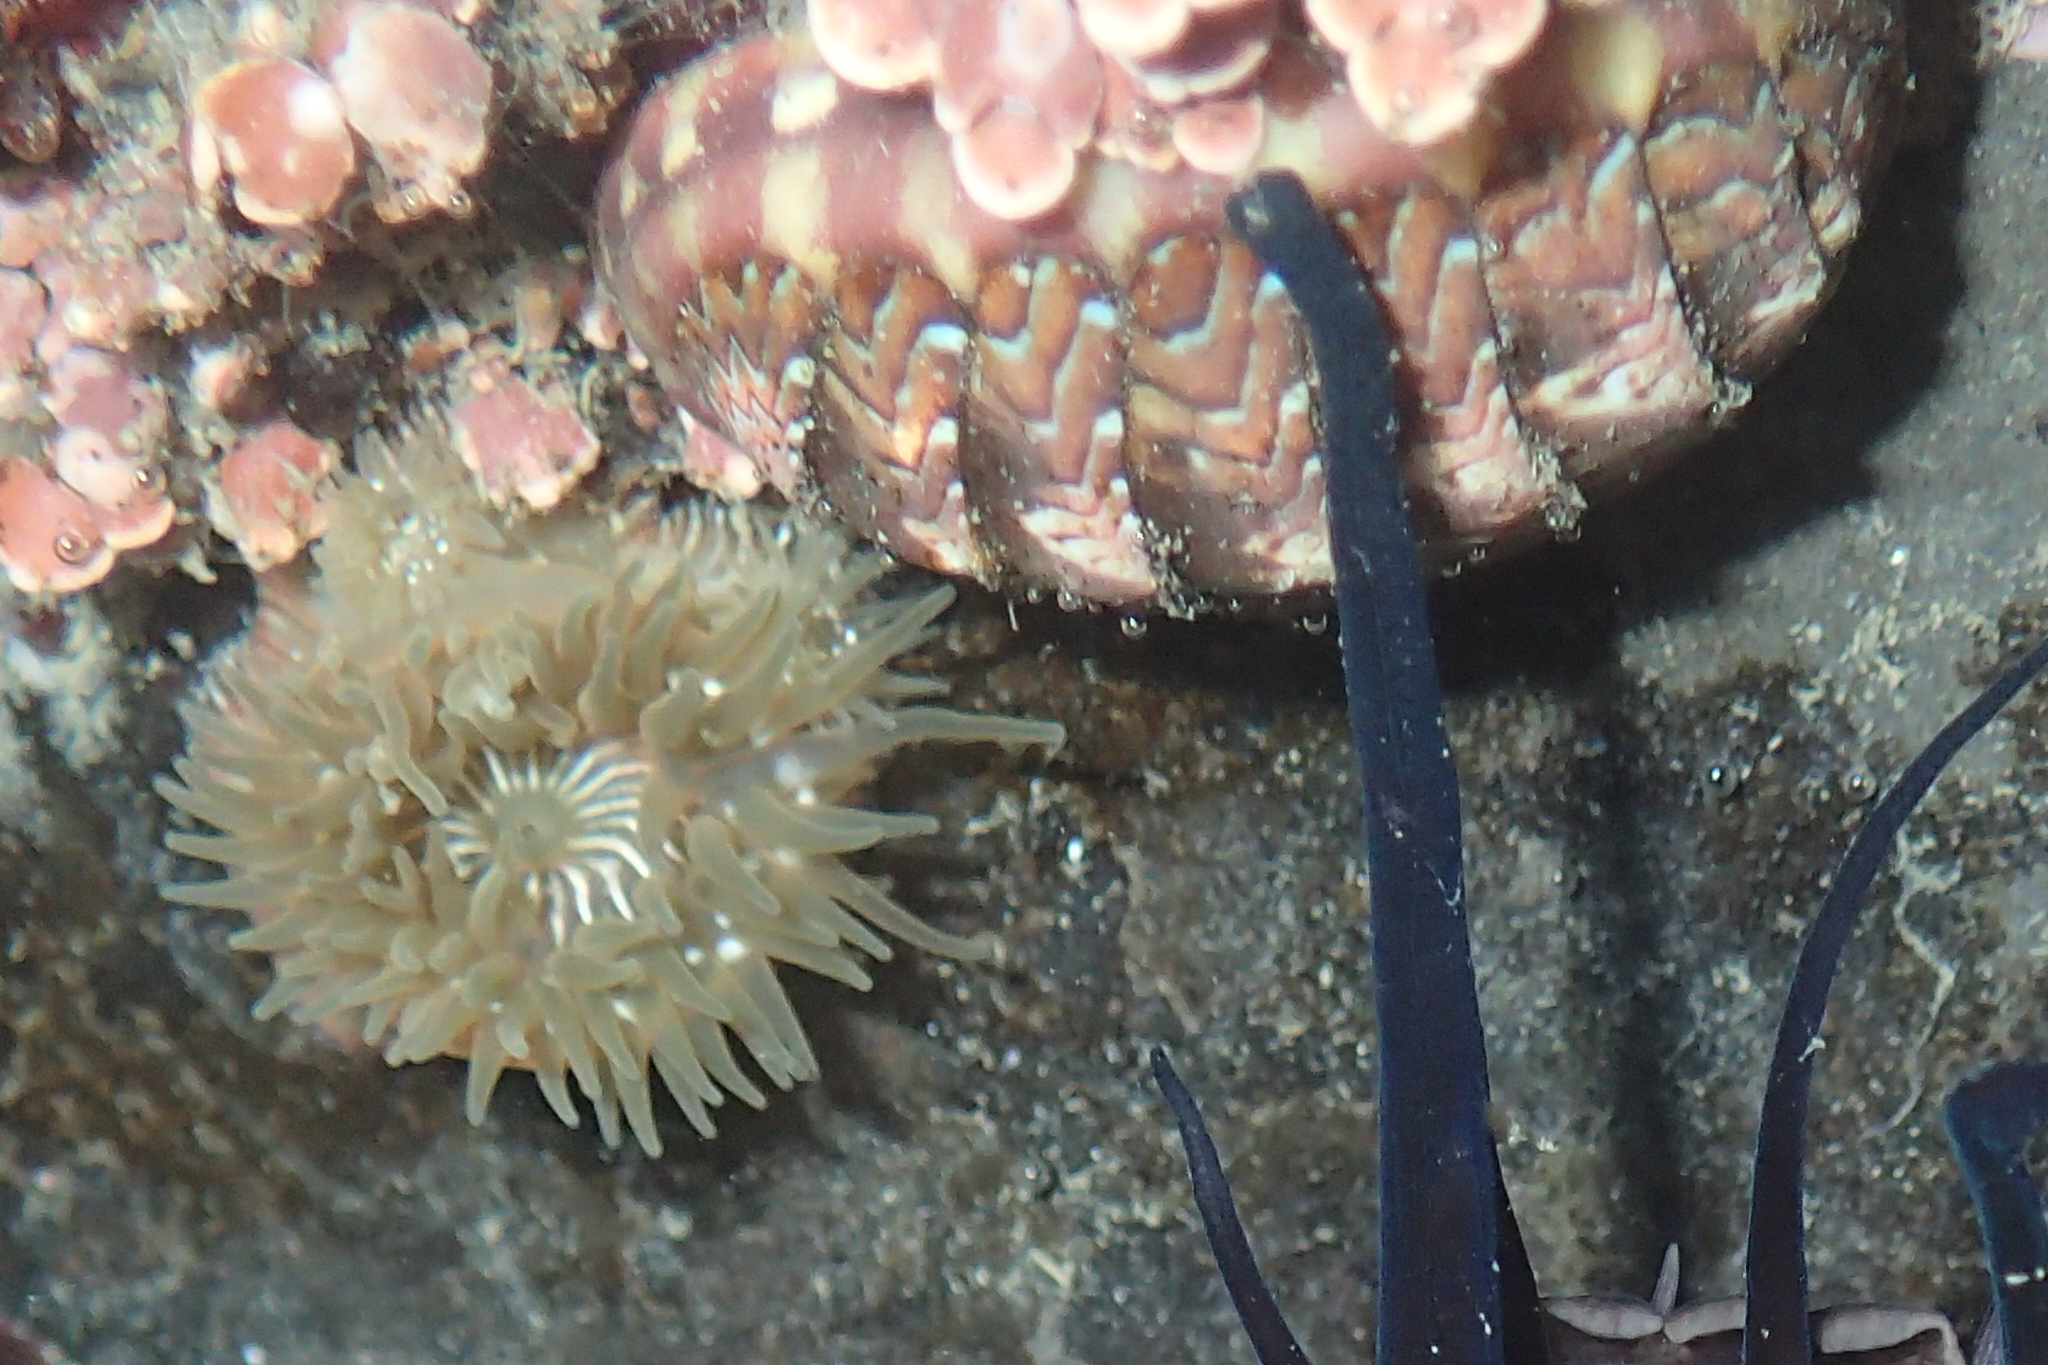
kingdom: Animalia
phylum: Cnidaria
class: Anthozoa
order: Actiniaria
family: Actiniidae
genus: Epiactis
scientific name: Epiactis prolifera
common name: Brooding anemone
